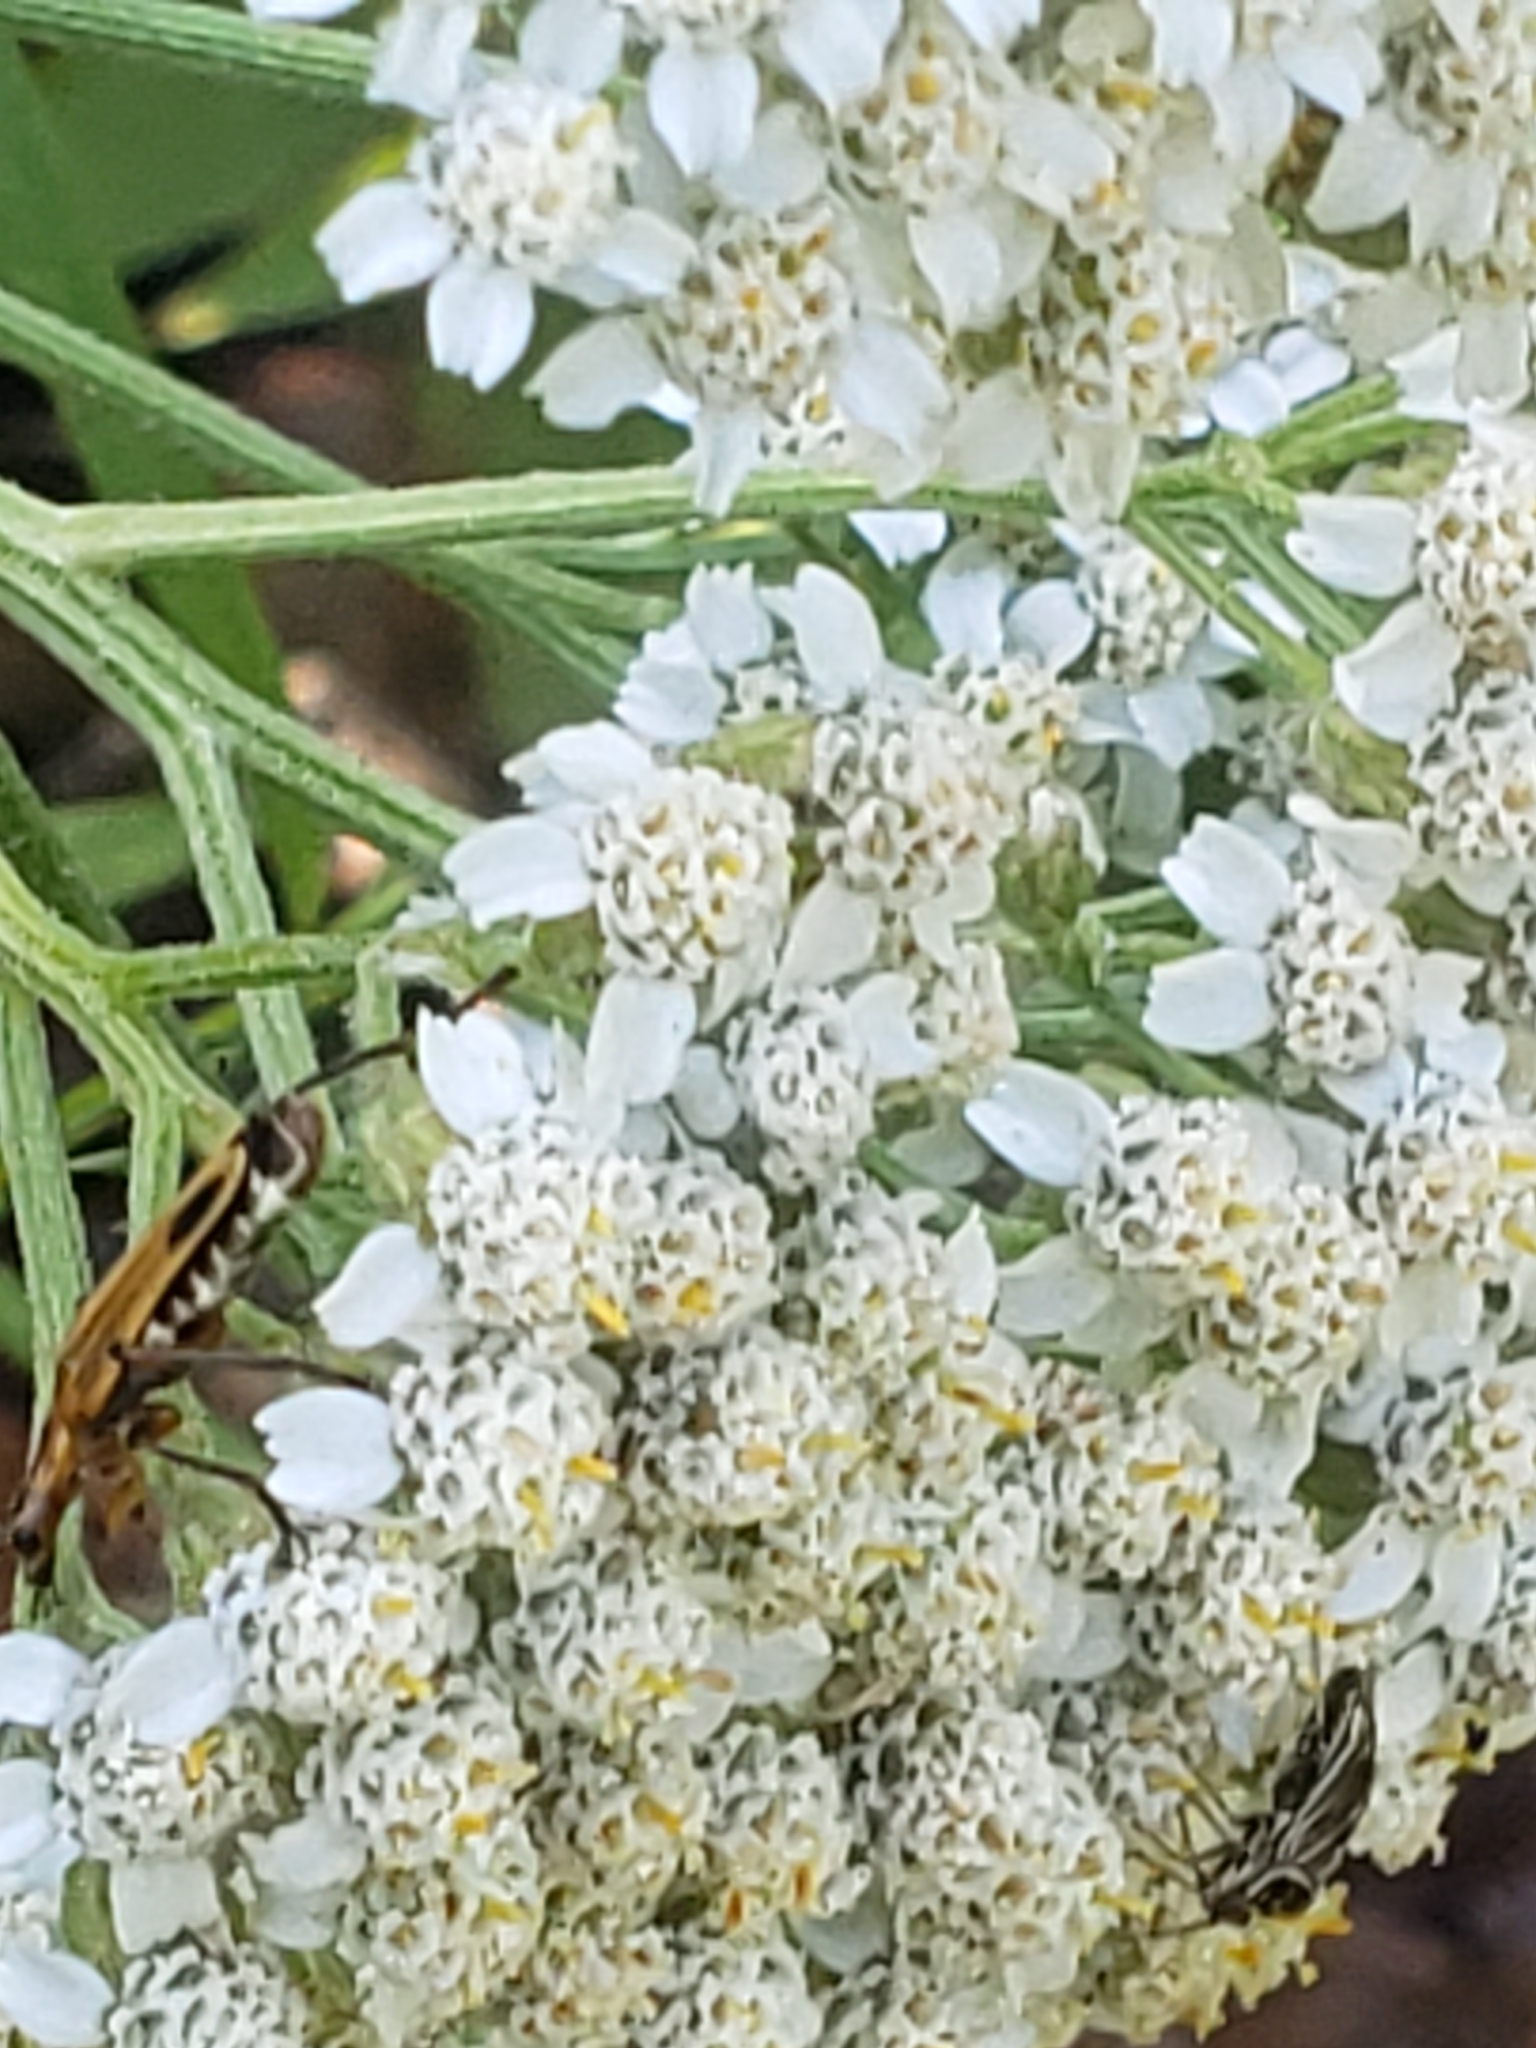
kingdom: Animalia
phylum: Arthropoda
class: Insecta
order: Coleoptera
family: Cantharidae
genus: Chauliognathus
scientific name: Chauliognathus marginatus
